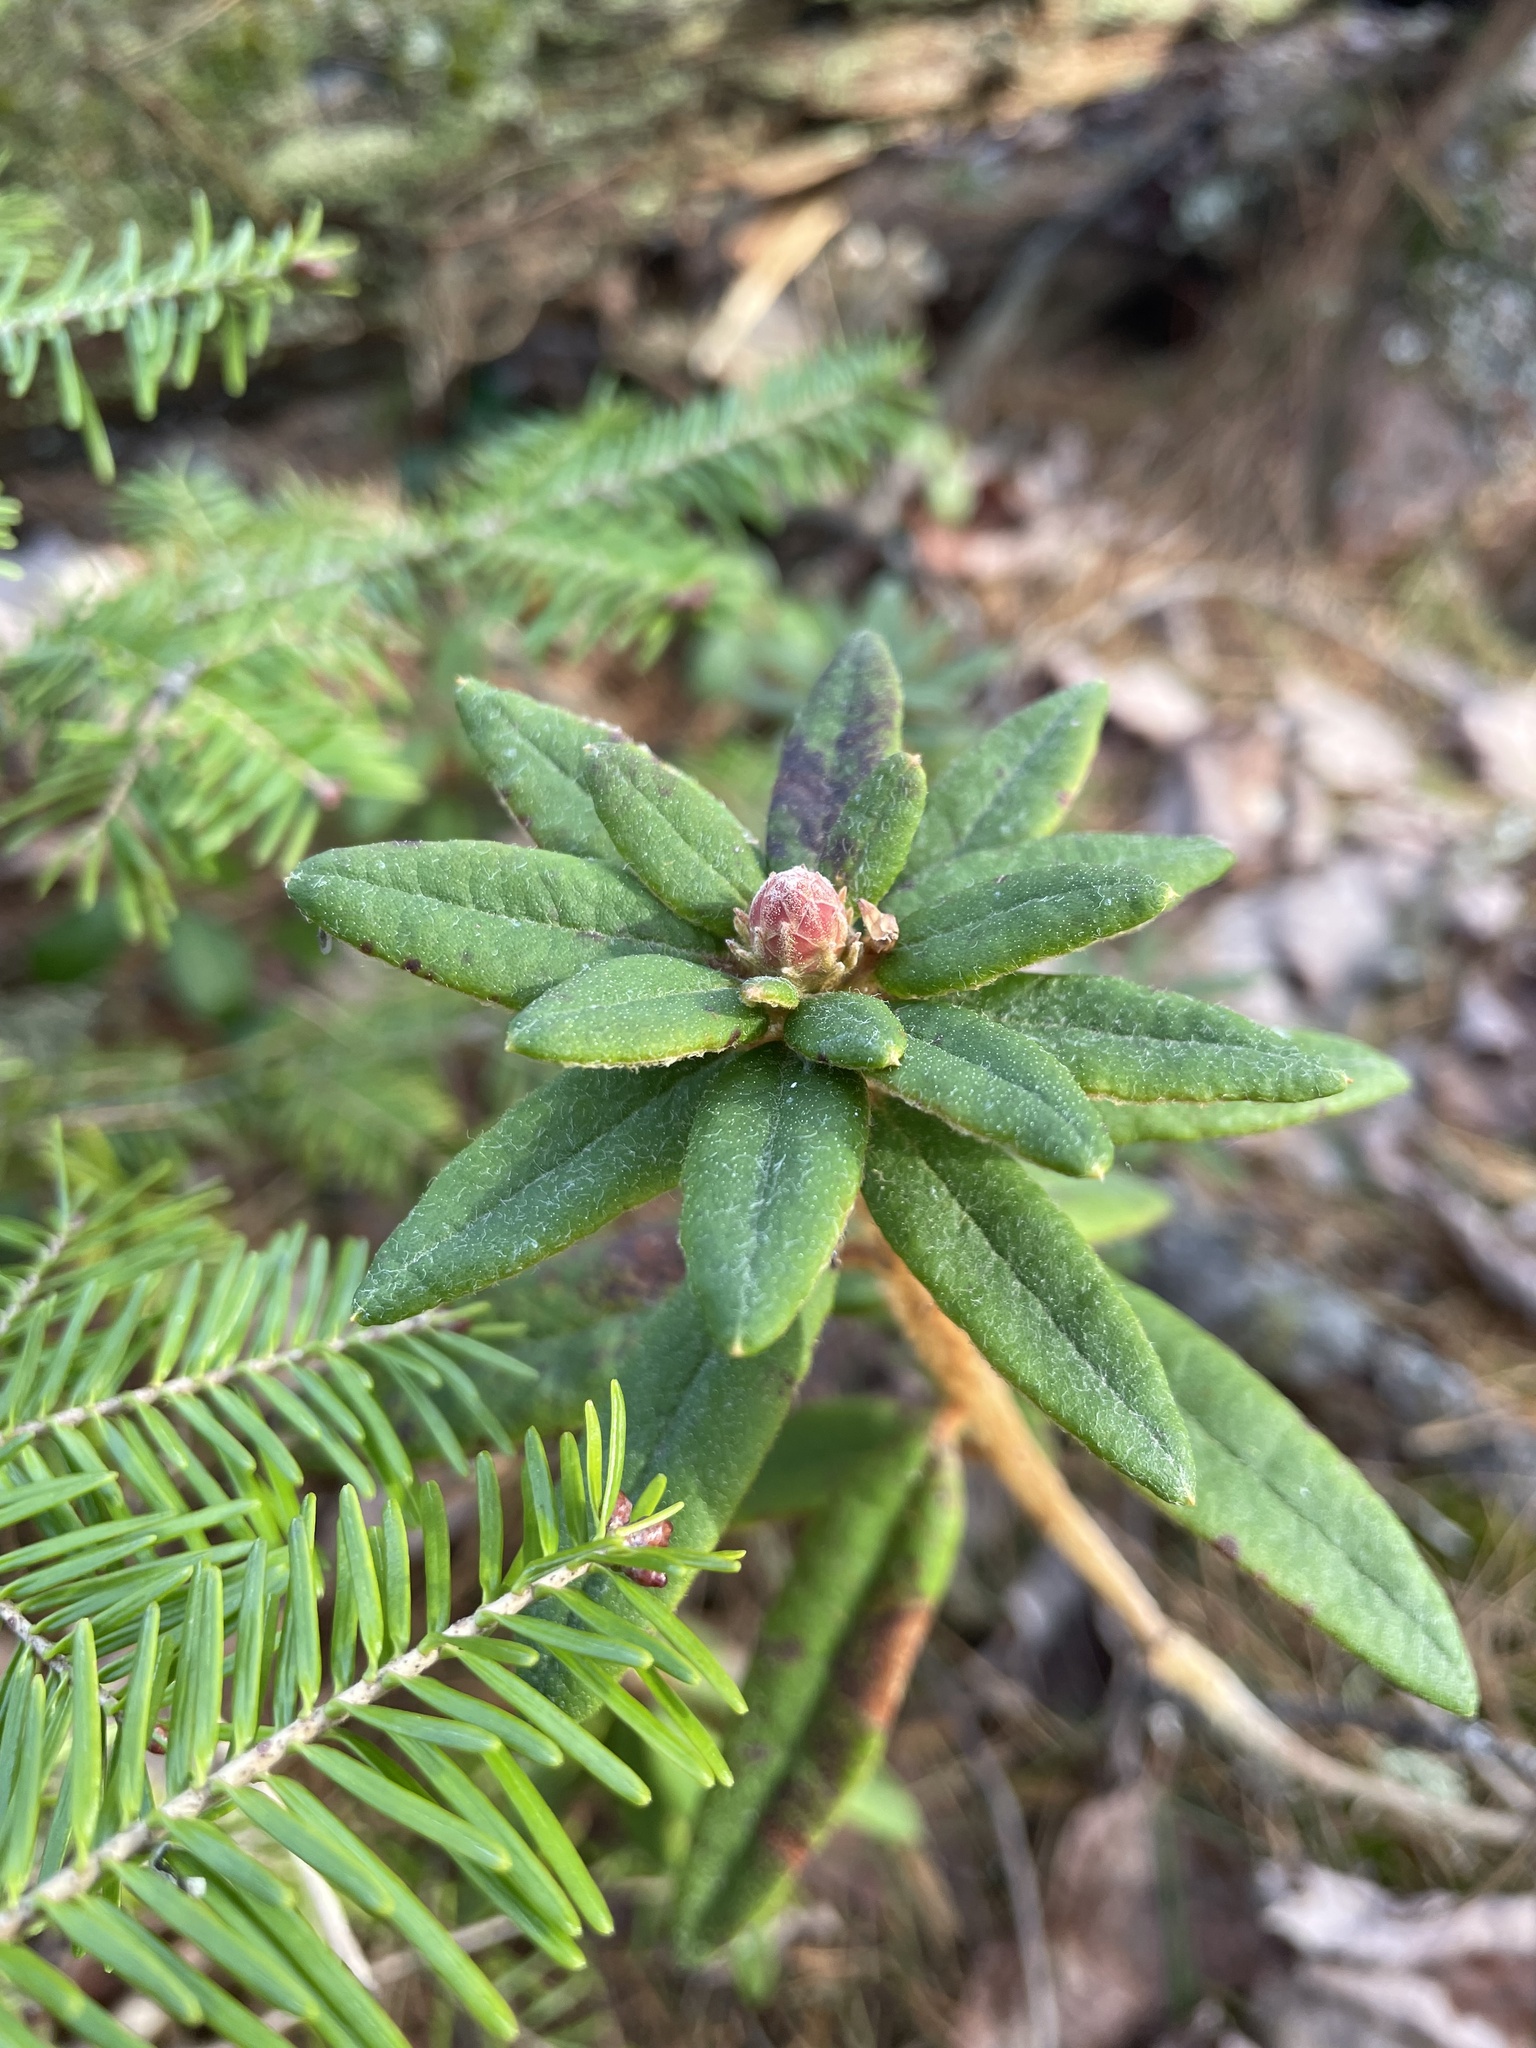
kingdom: Plantae
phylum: Tracheophyta
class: Magnoliopsida
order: Ericales
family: Ericaceae
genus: Rhododendron
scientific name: Rhododendron groenlandicum
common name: Bog labrador tea
